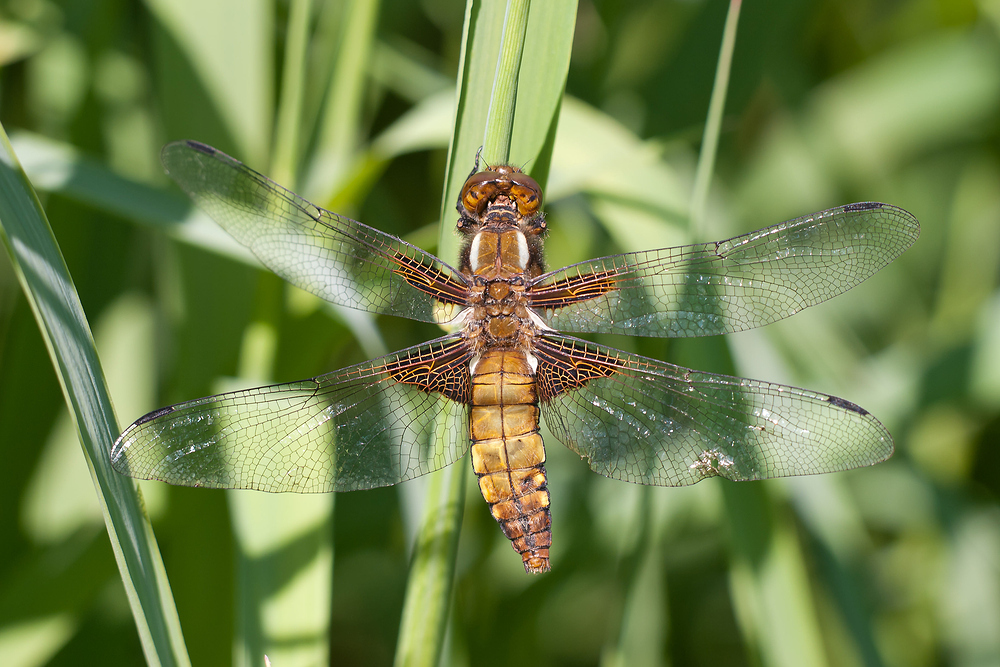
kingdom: Animalia
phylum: Arthropoda
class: Insecta
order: Odonata
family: Libellulidae
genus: Libellula
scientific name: Libellula depressa
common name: Broad-bodied chaser
